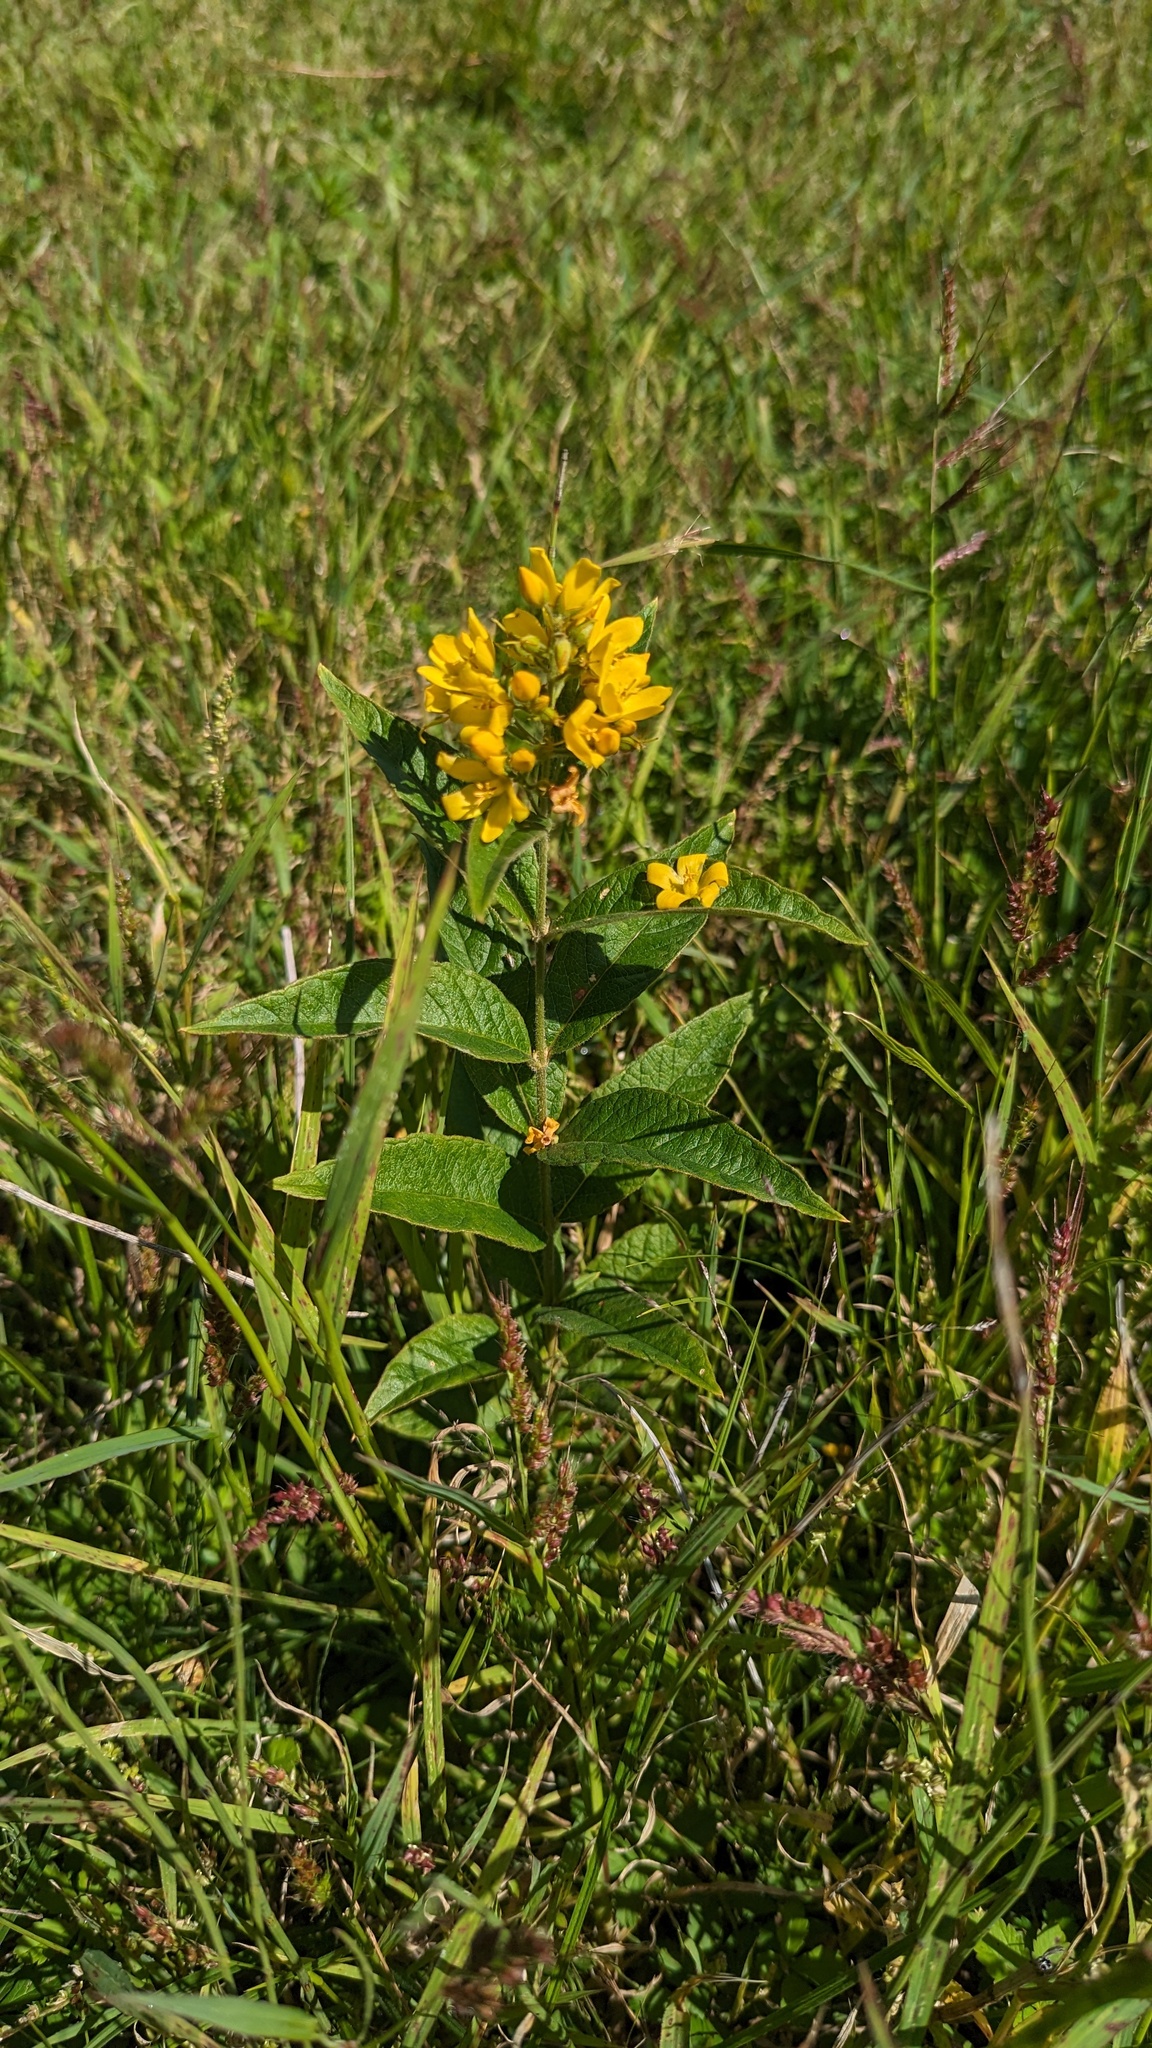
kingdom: Plantae
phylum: Tracheophyta
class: Magnoliopsida
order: Ericales
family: Primulaceae
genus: Lysimachia
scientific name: Lysimachia vulgaris
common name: Yellow loosestrife
